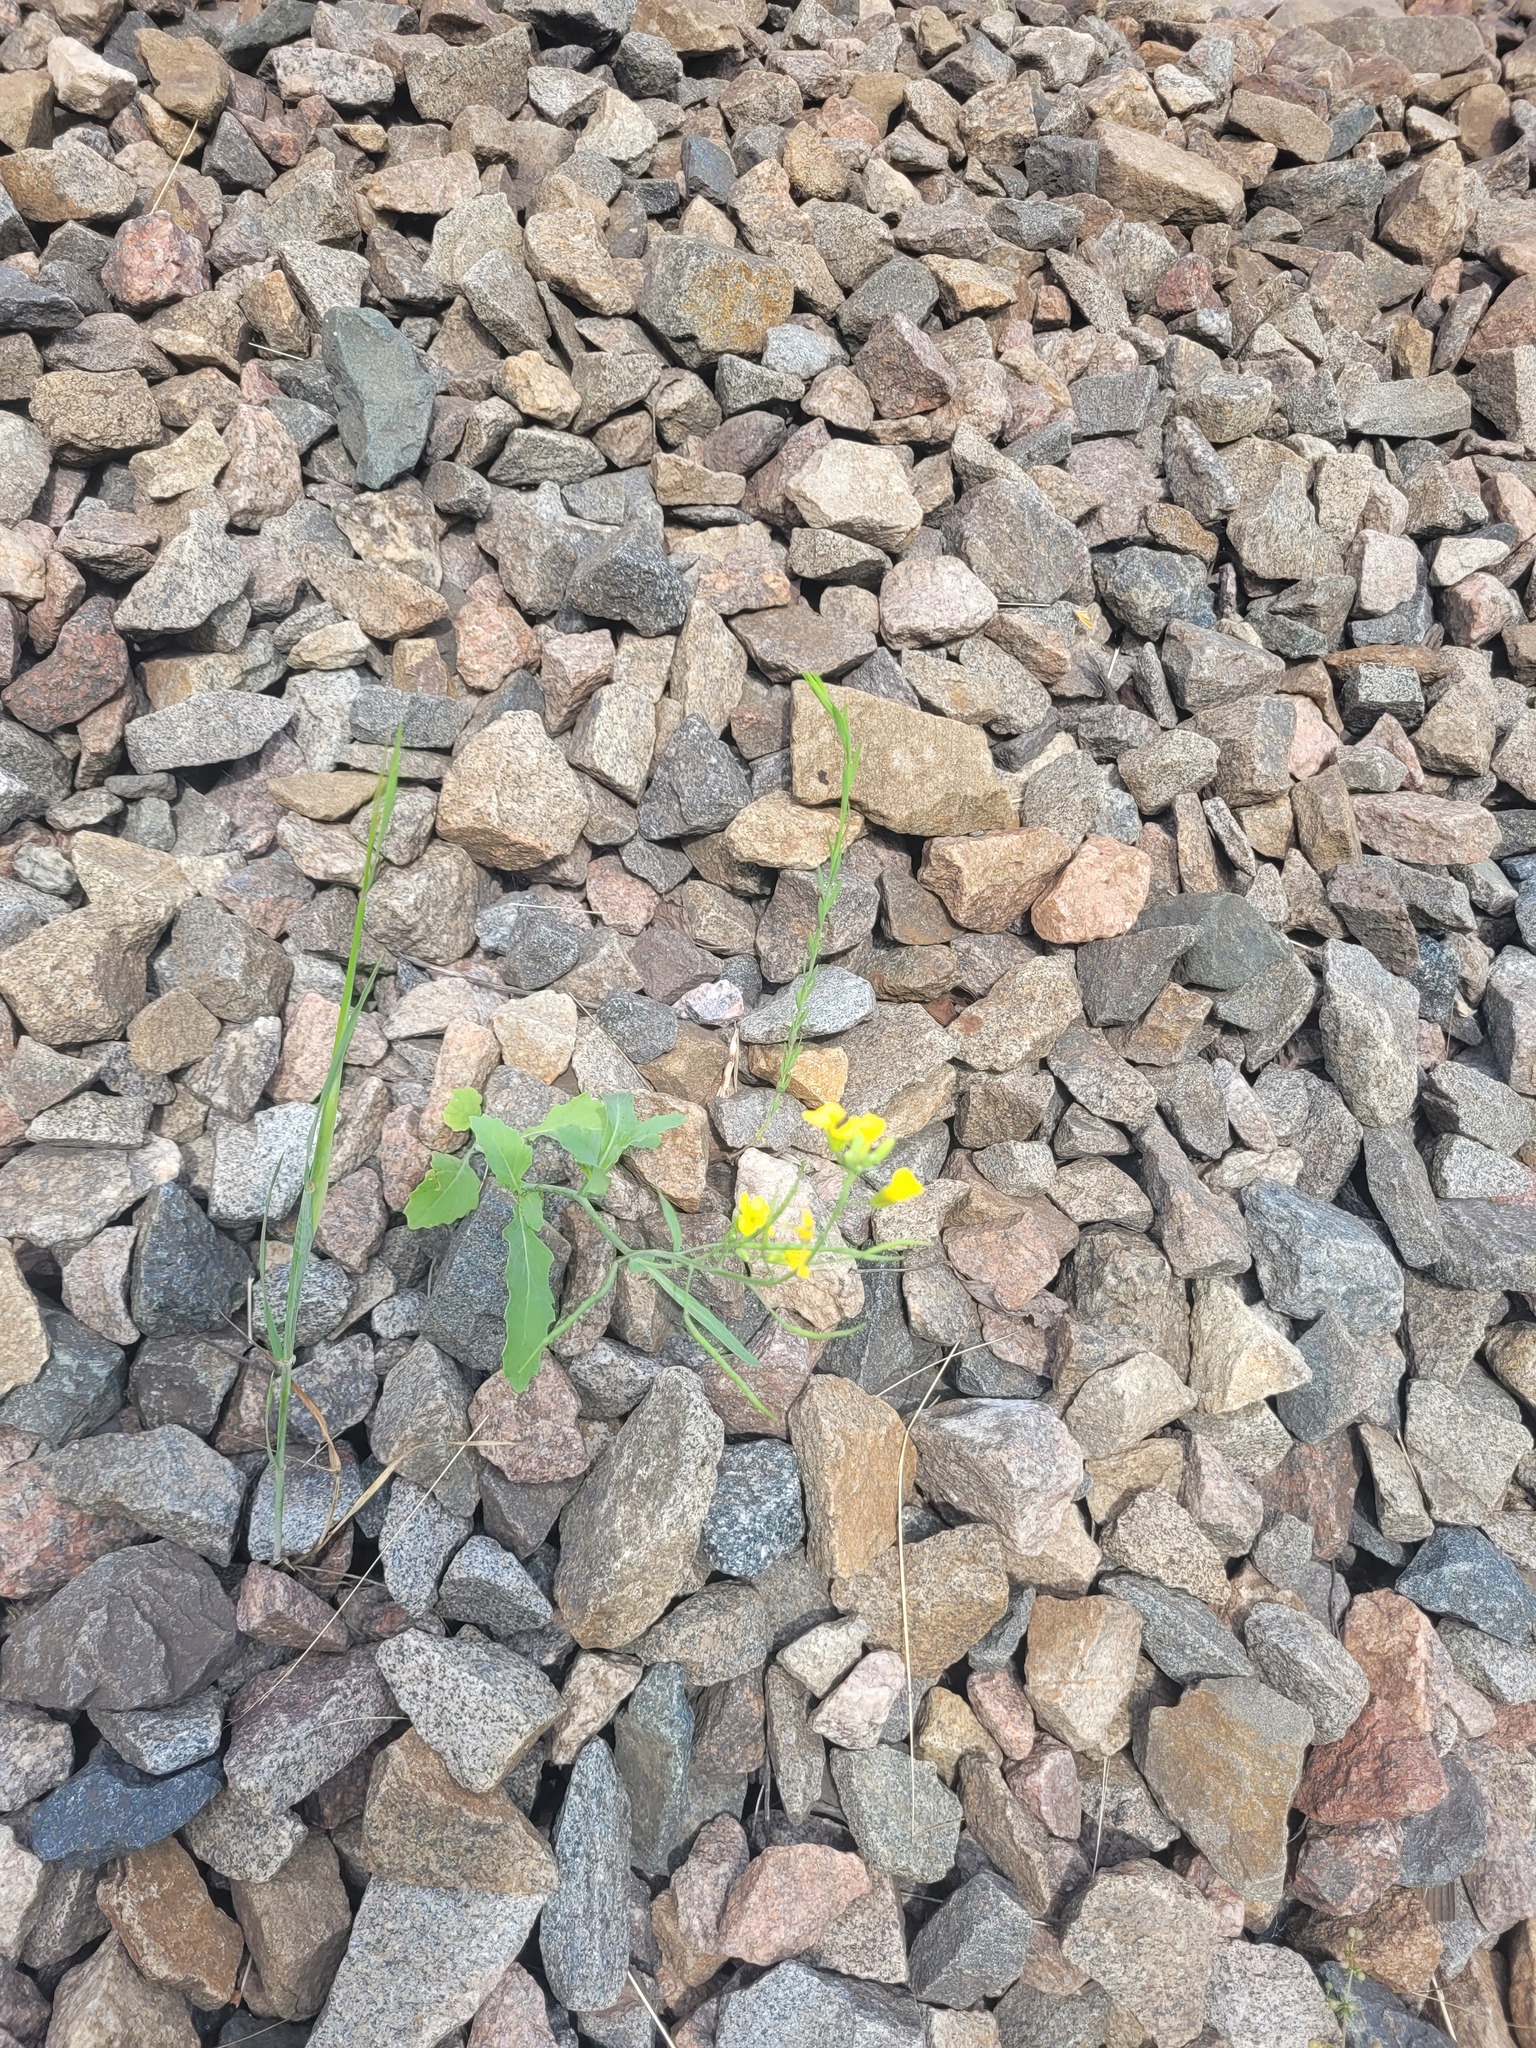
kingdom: Plantae
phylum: Tracheophyta
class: Magnoliopsida
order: Brassicales
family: Brassicaceae
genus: Brassica
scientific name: Brassica napus
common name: Rape
